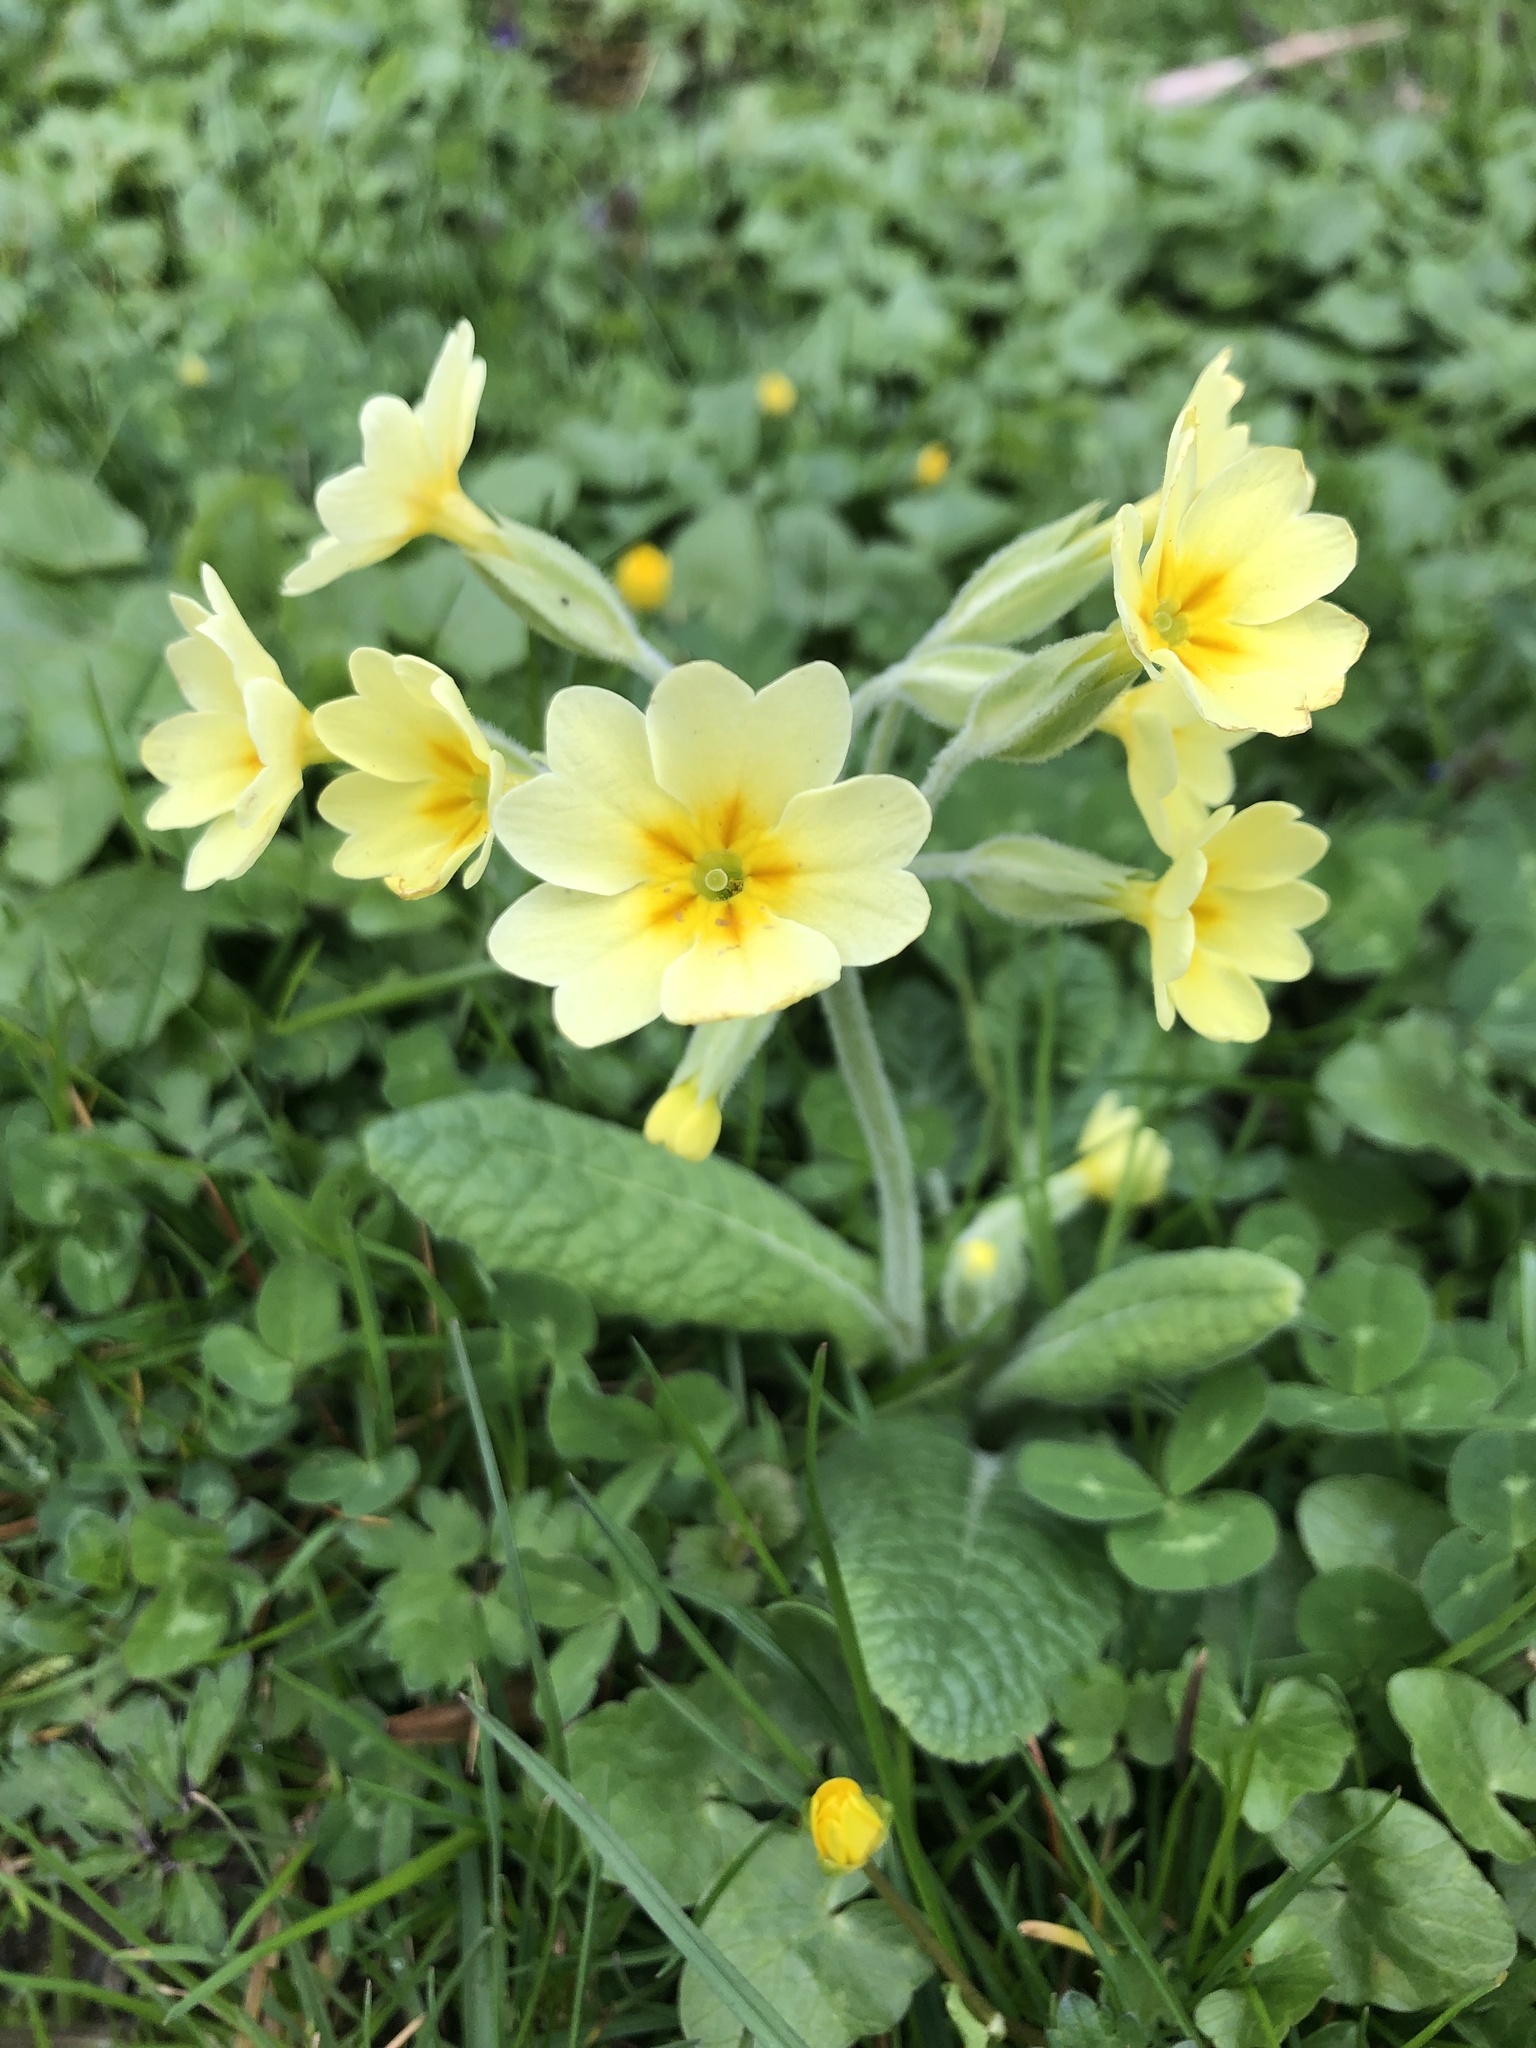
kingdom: Plantae
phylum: Tracheophyta
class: Magnoliopsida
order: Ericales
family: Primulaceae
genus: Primula
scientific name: Primula elatior
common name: Oxlip
